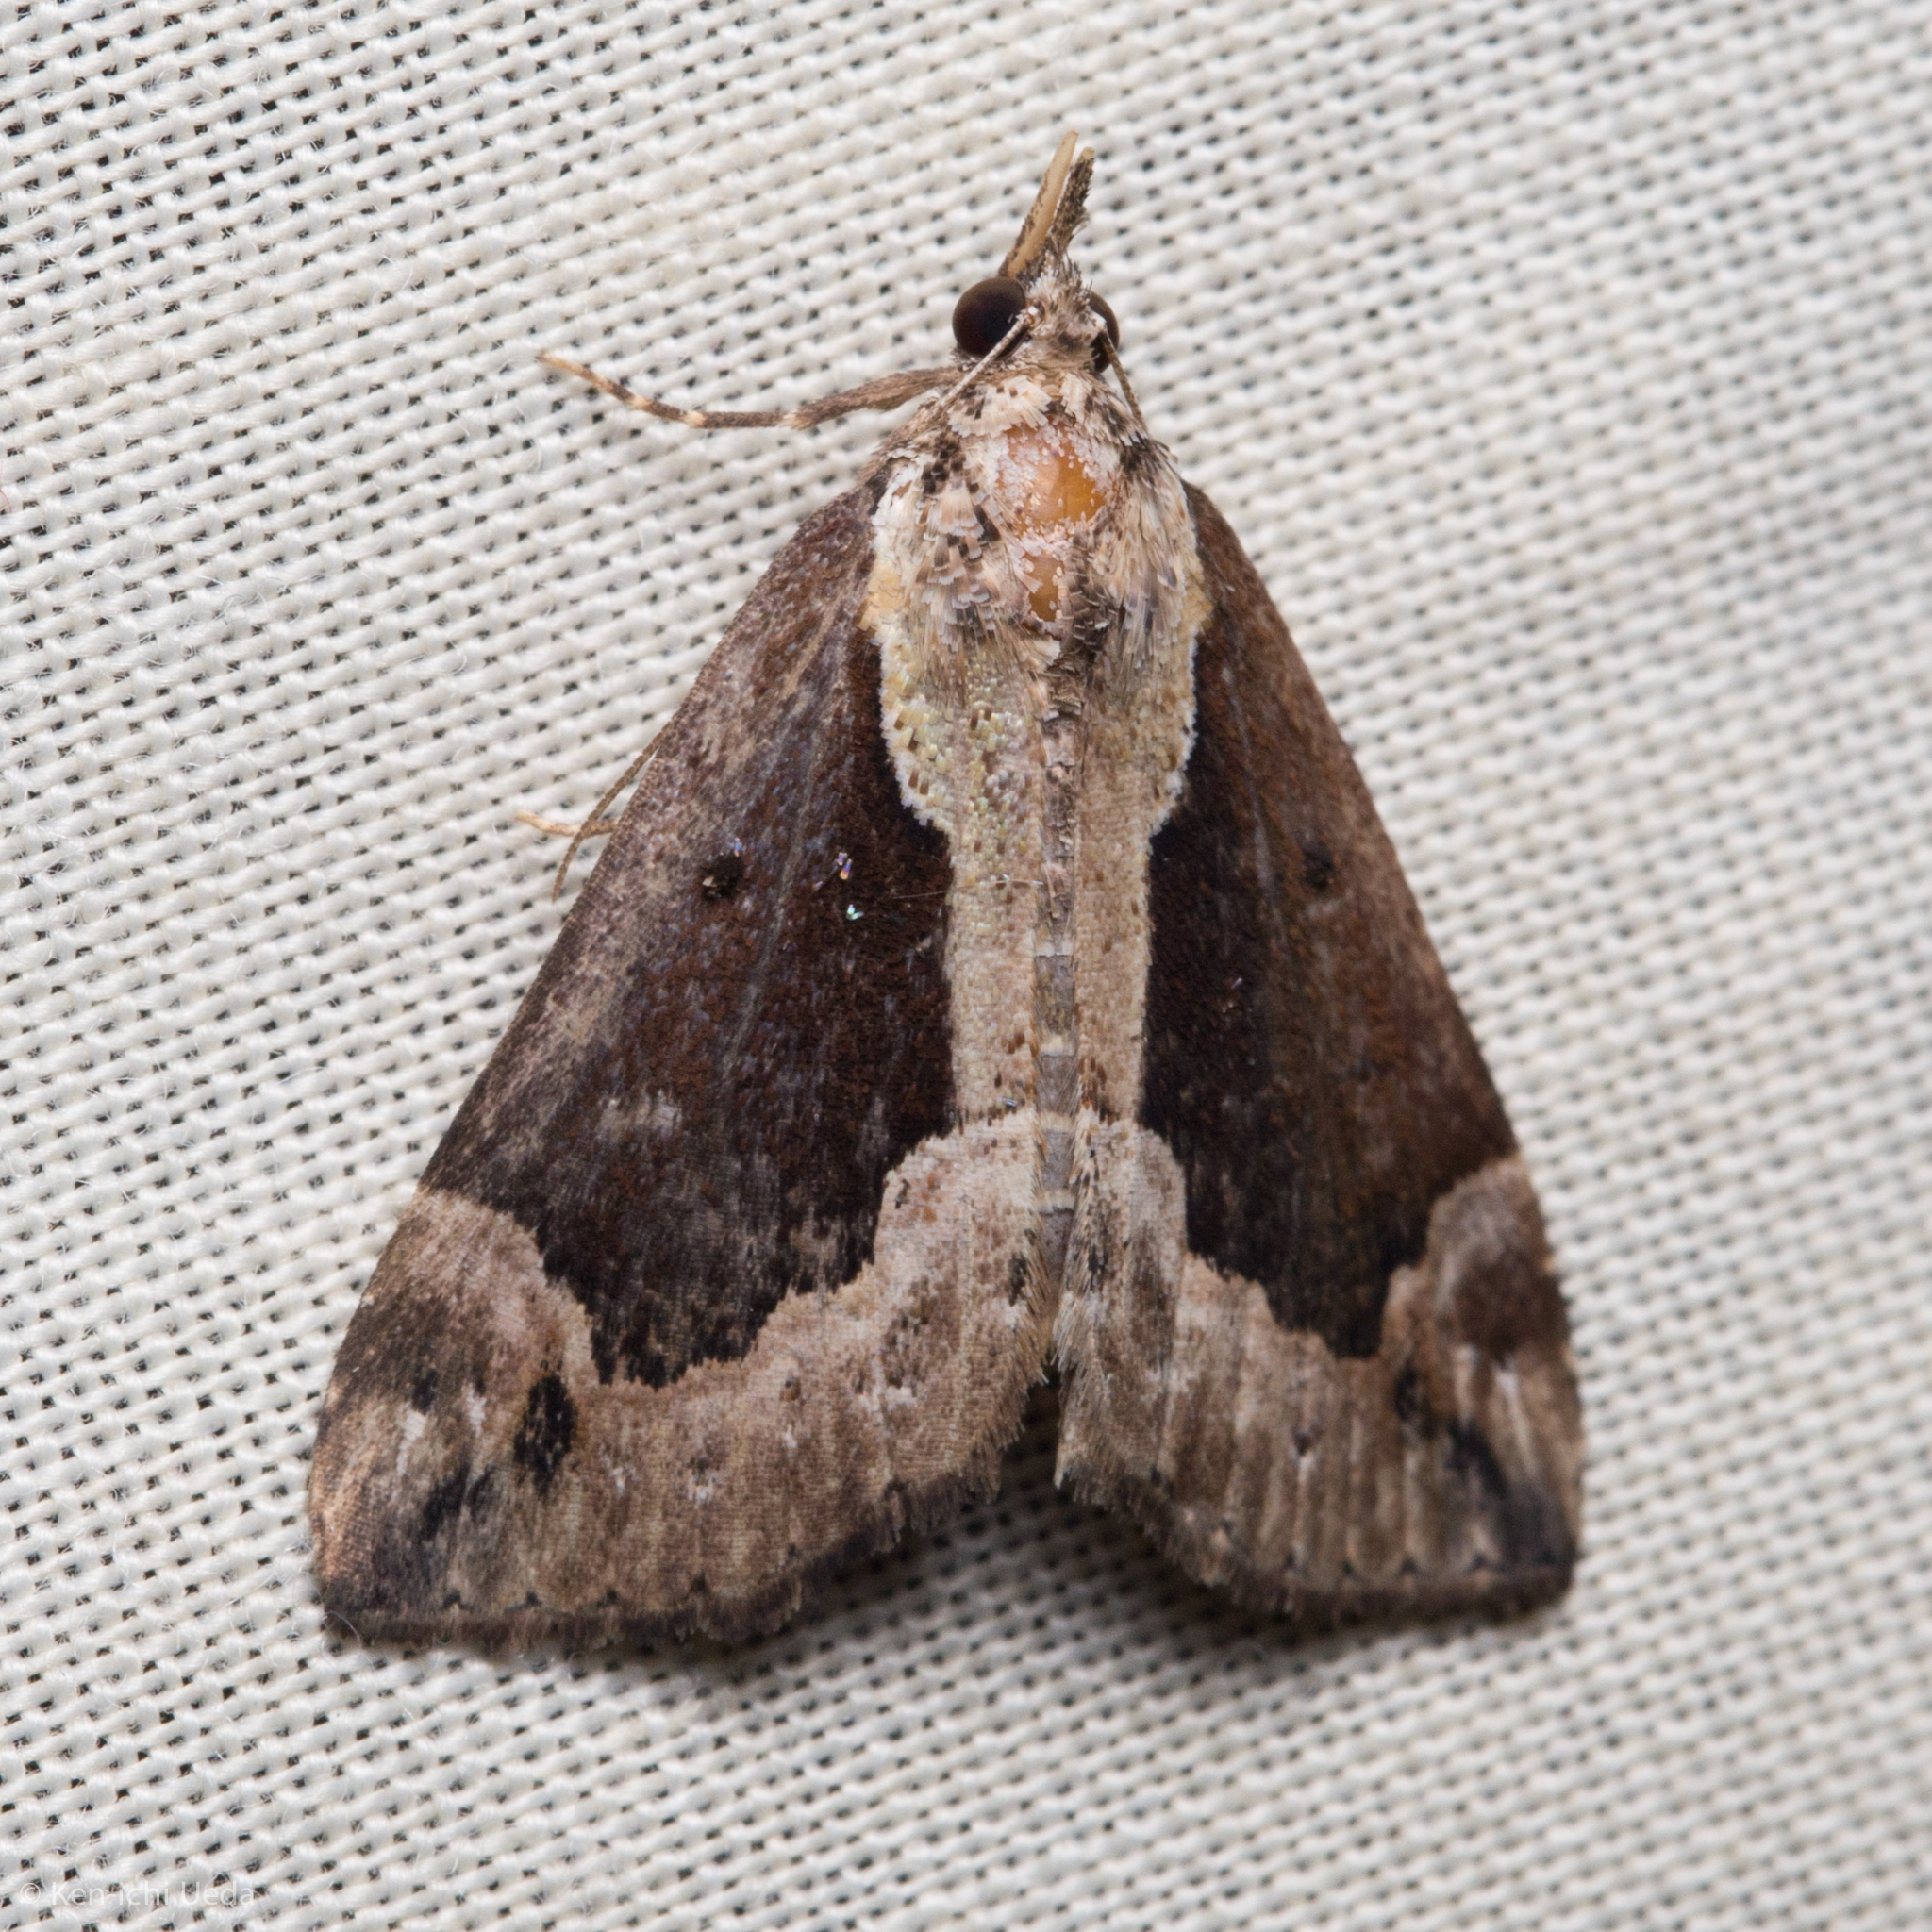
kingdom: Animalia
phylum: Arthropoda
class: Insecta
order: Lepidoptera
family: Erebidae
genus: Hypena
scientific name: Hypena baltimoralis
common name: Baltimore snout
